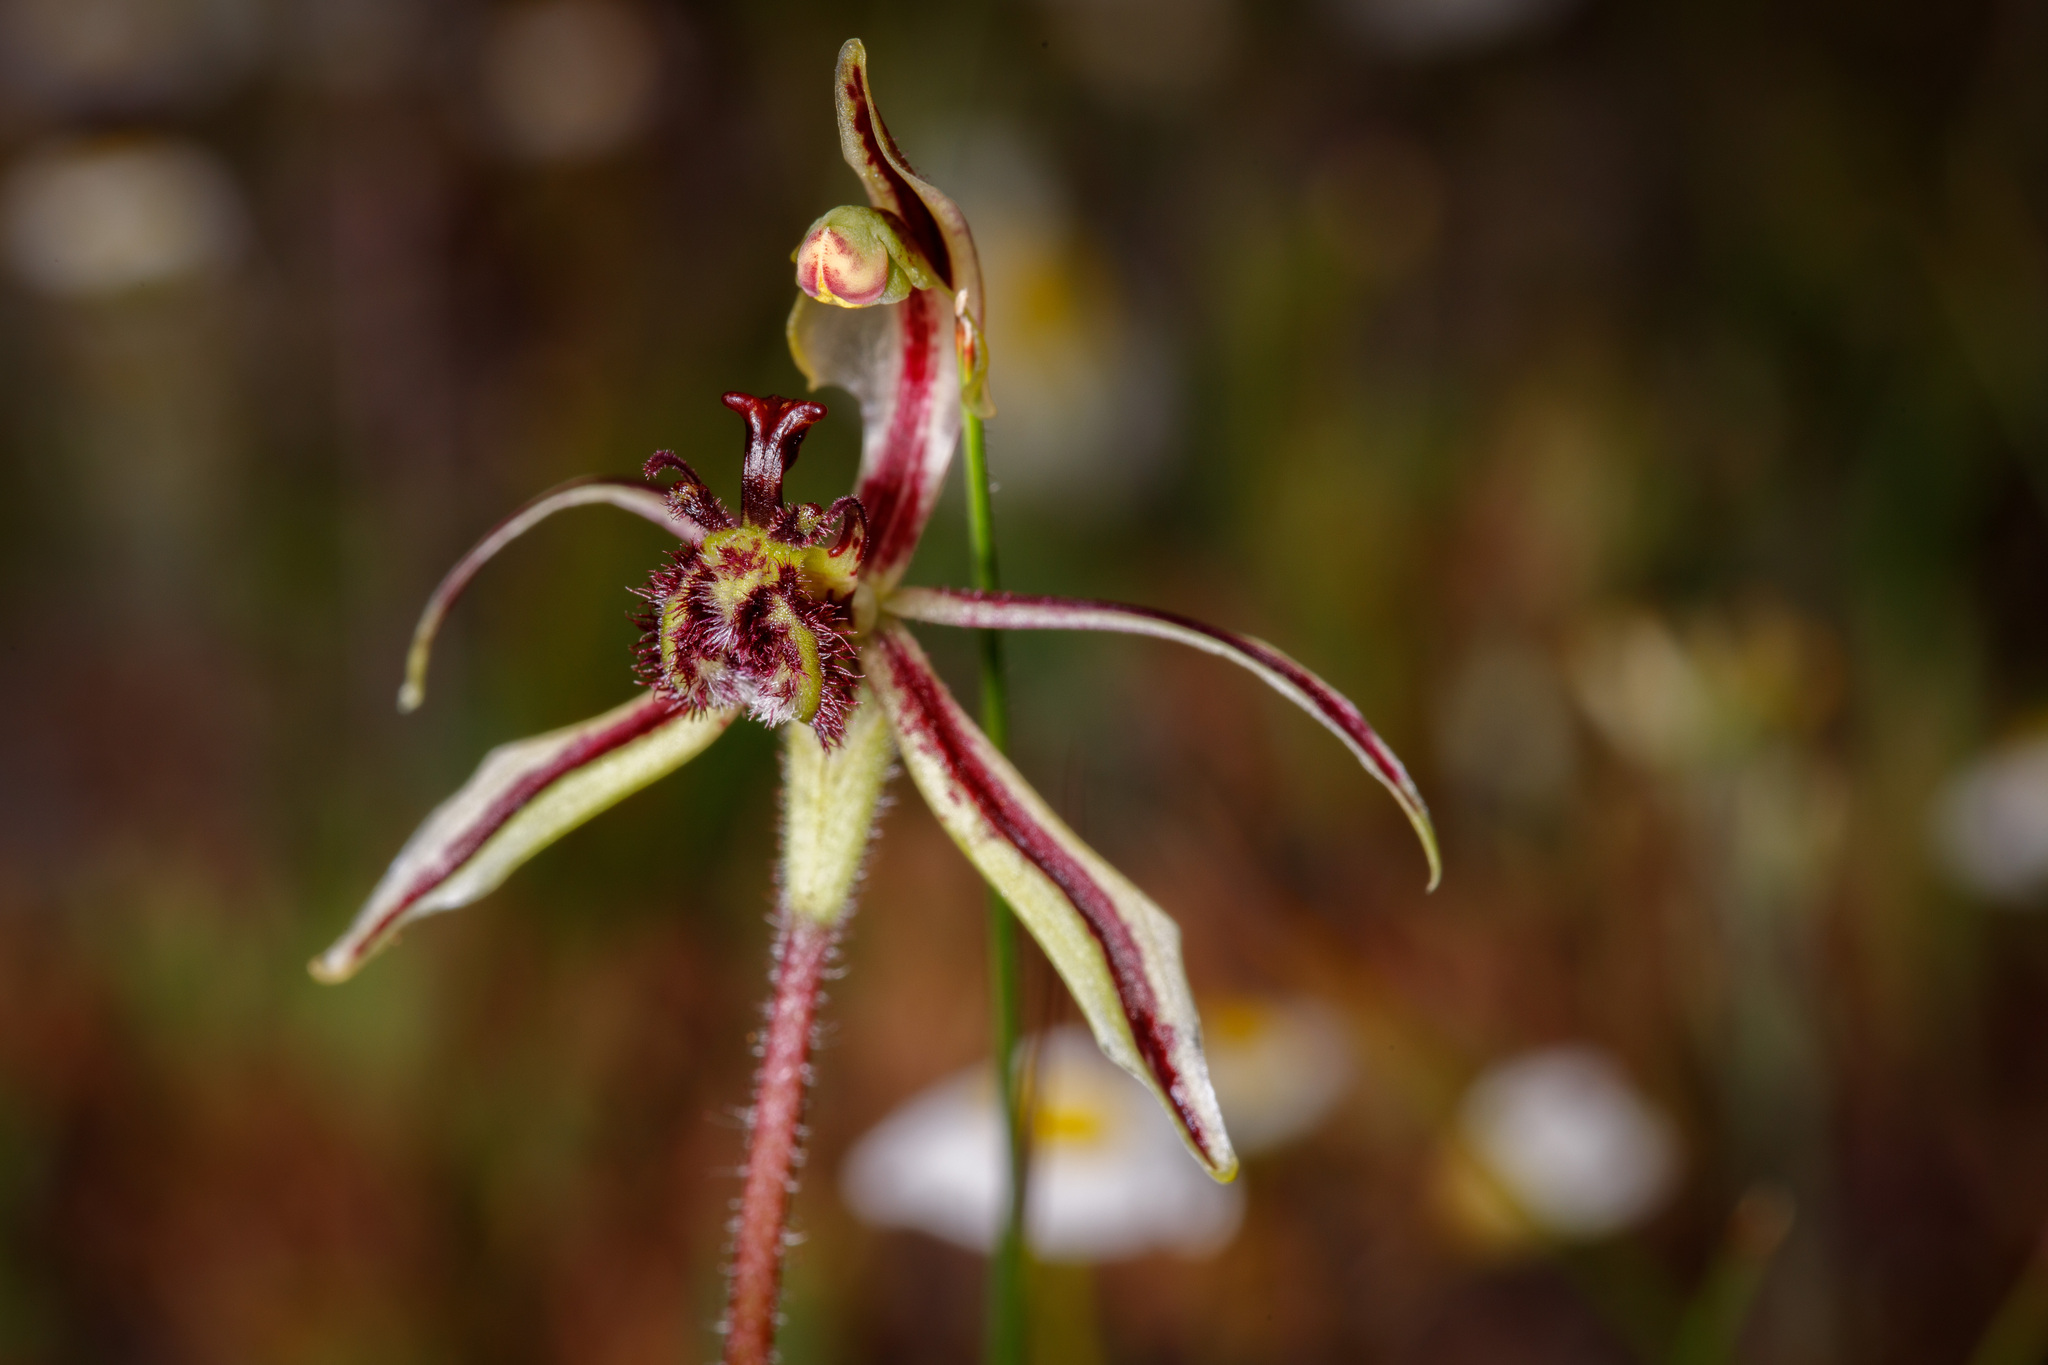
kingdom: Plantae
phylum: Tracheophyta
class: Liliopsida
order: Asparagales
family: Orchidaceae
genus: Caladenia
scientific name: Caladenia barbarossa
